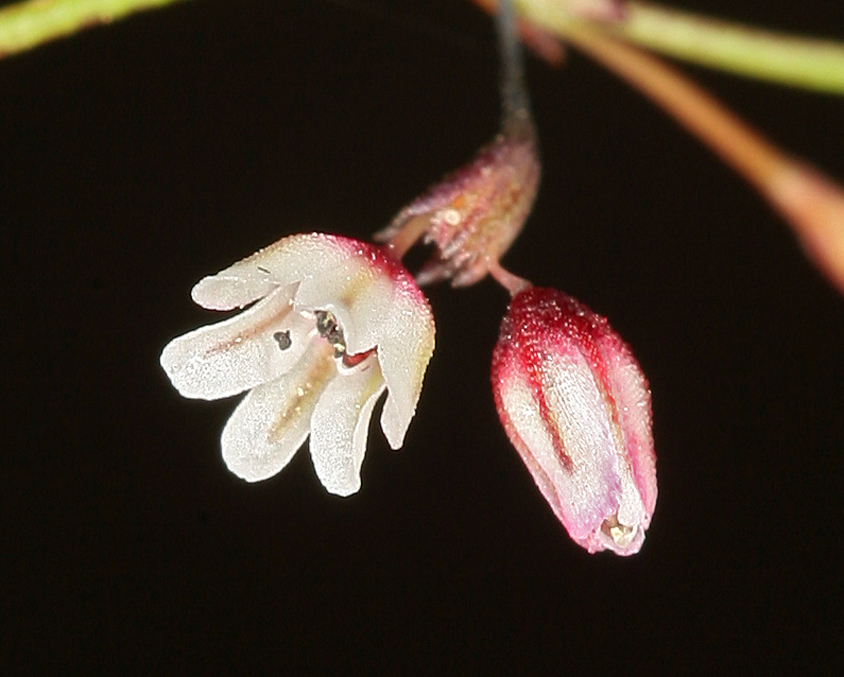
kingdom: Plantae
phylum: Tracheophyta
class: Magnoliopsida
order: Caryophyllales
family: Polygonaceae
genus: Eriogonum
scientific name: Eriogonum esmeraldense
